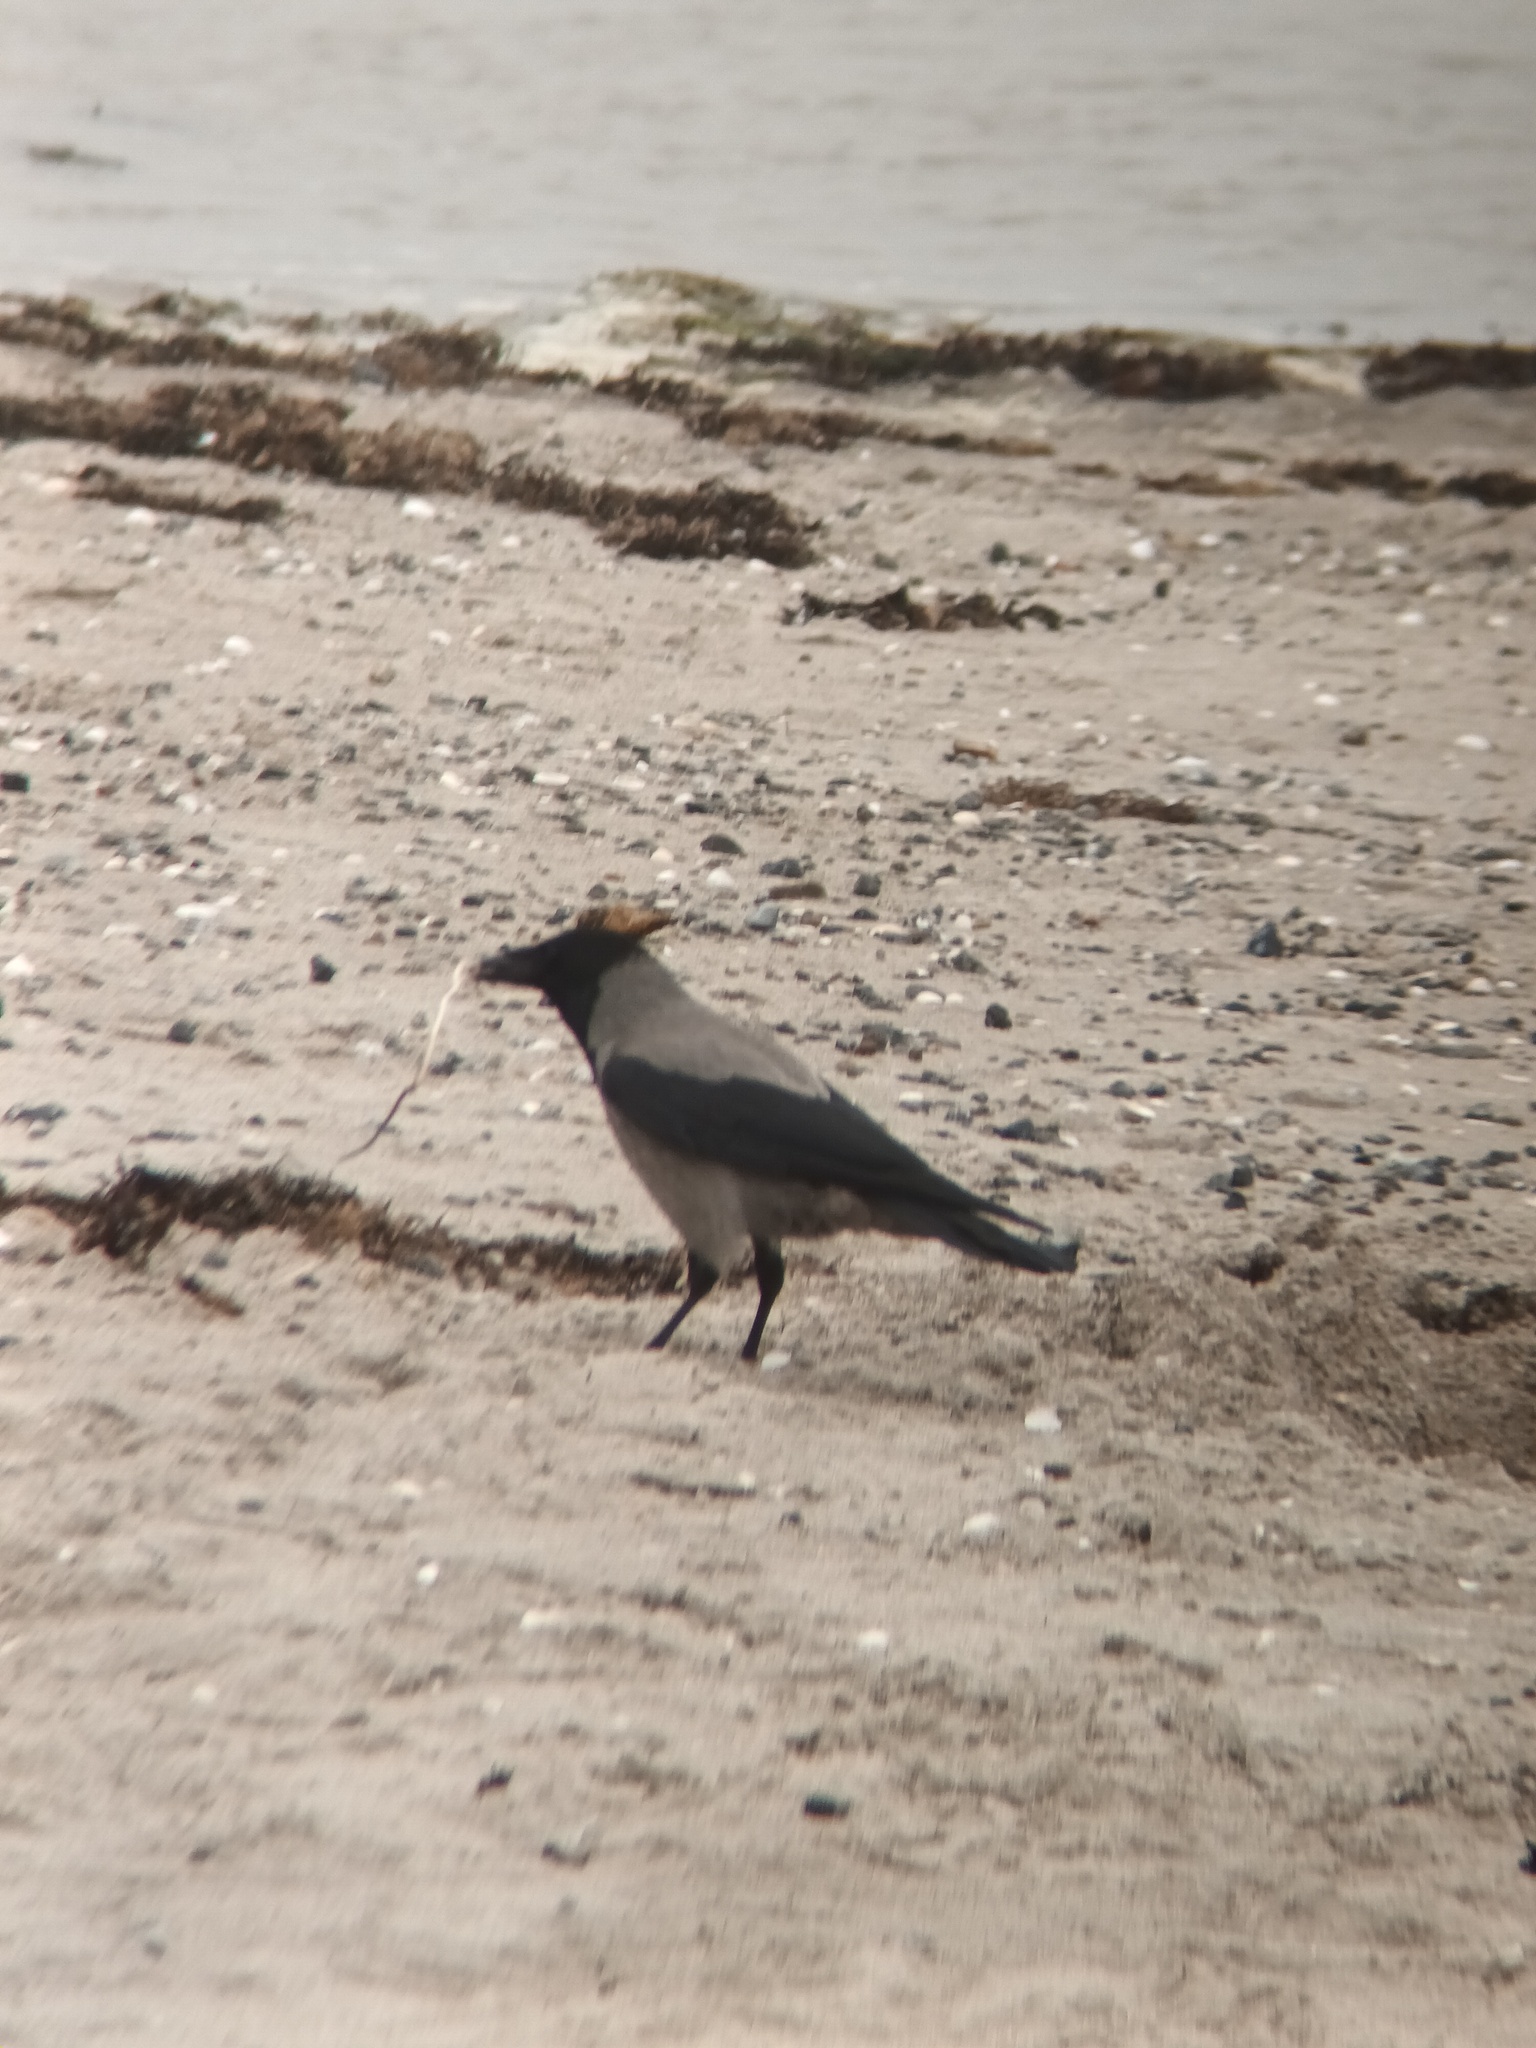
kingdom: Animalia
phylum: Chordata
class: Aves
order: Passeriformes
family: Corvidae
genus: Corvus
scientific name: Corvus cornix
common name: Hooded crow
